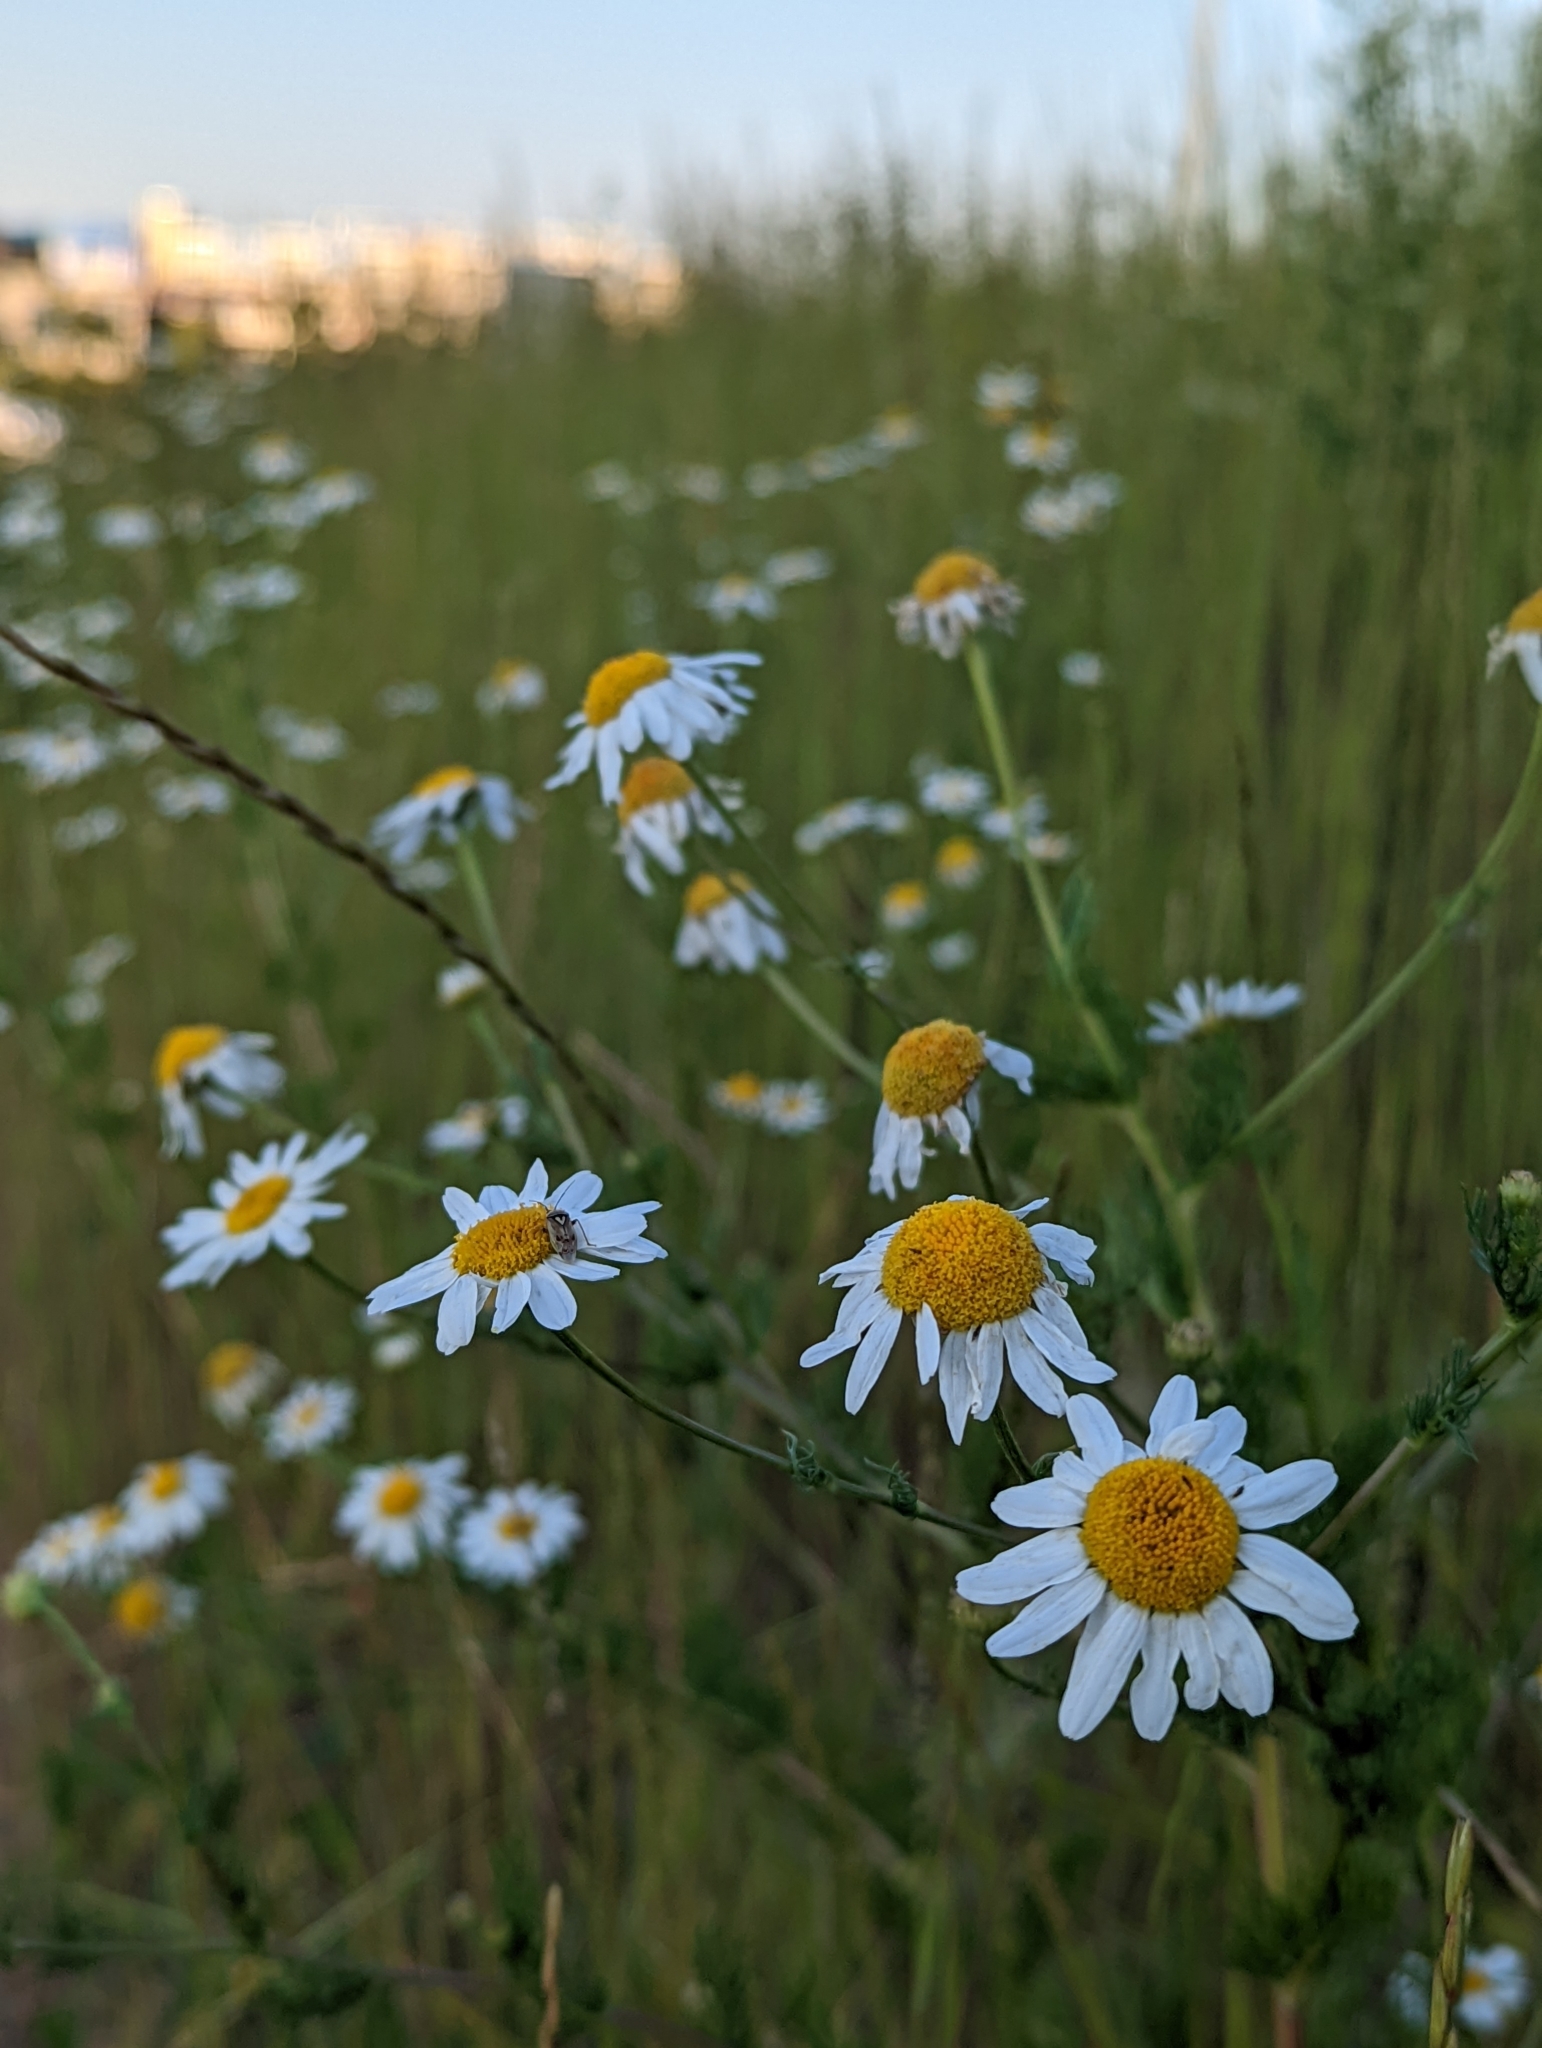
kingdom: Plantae
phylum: Tracheophyta
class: Magnoliopsida
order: Asterales
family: Asteraceae
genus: Tripleurospermum
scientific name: Tripleurospermum inodorum
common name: Scentless mayweed
